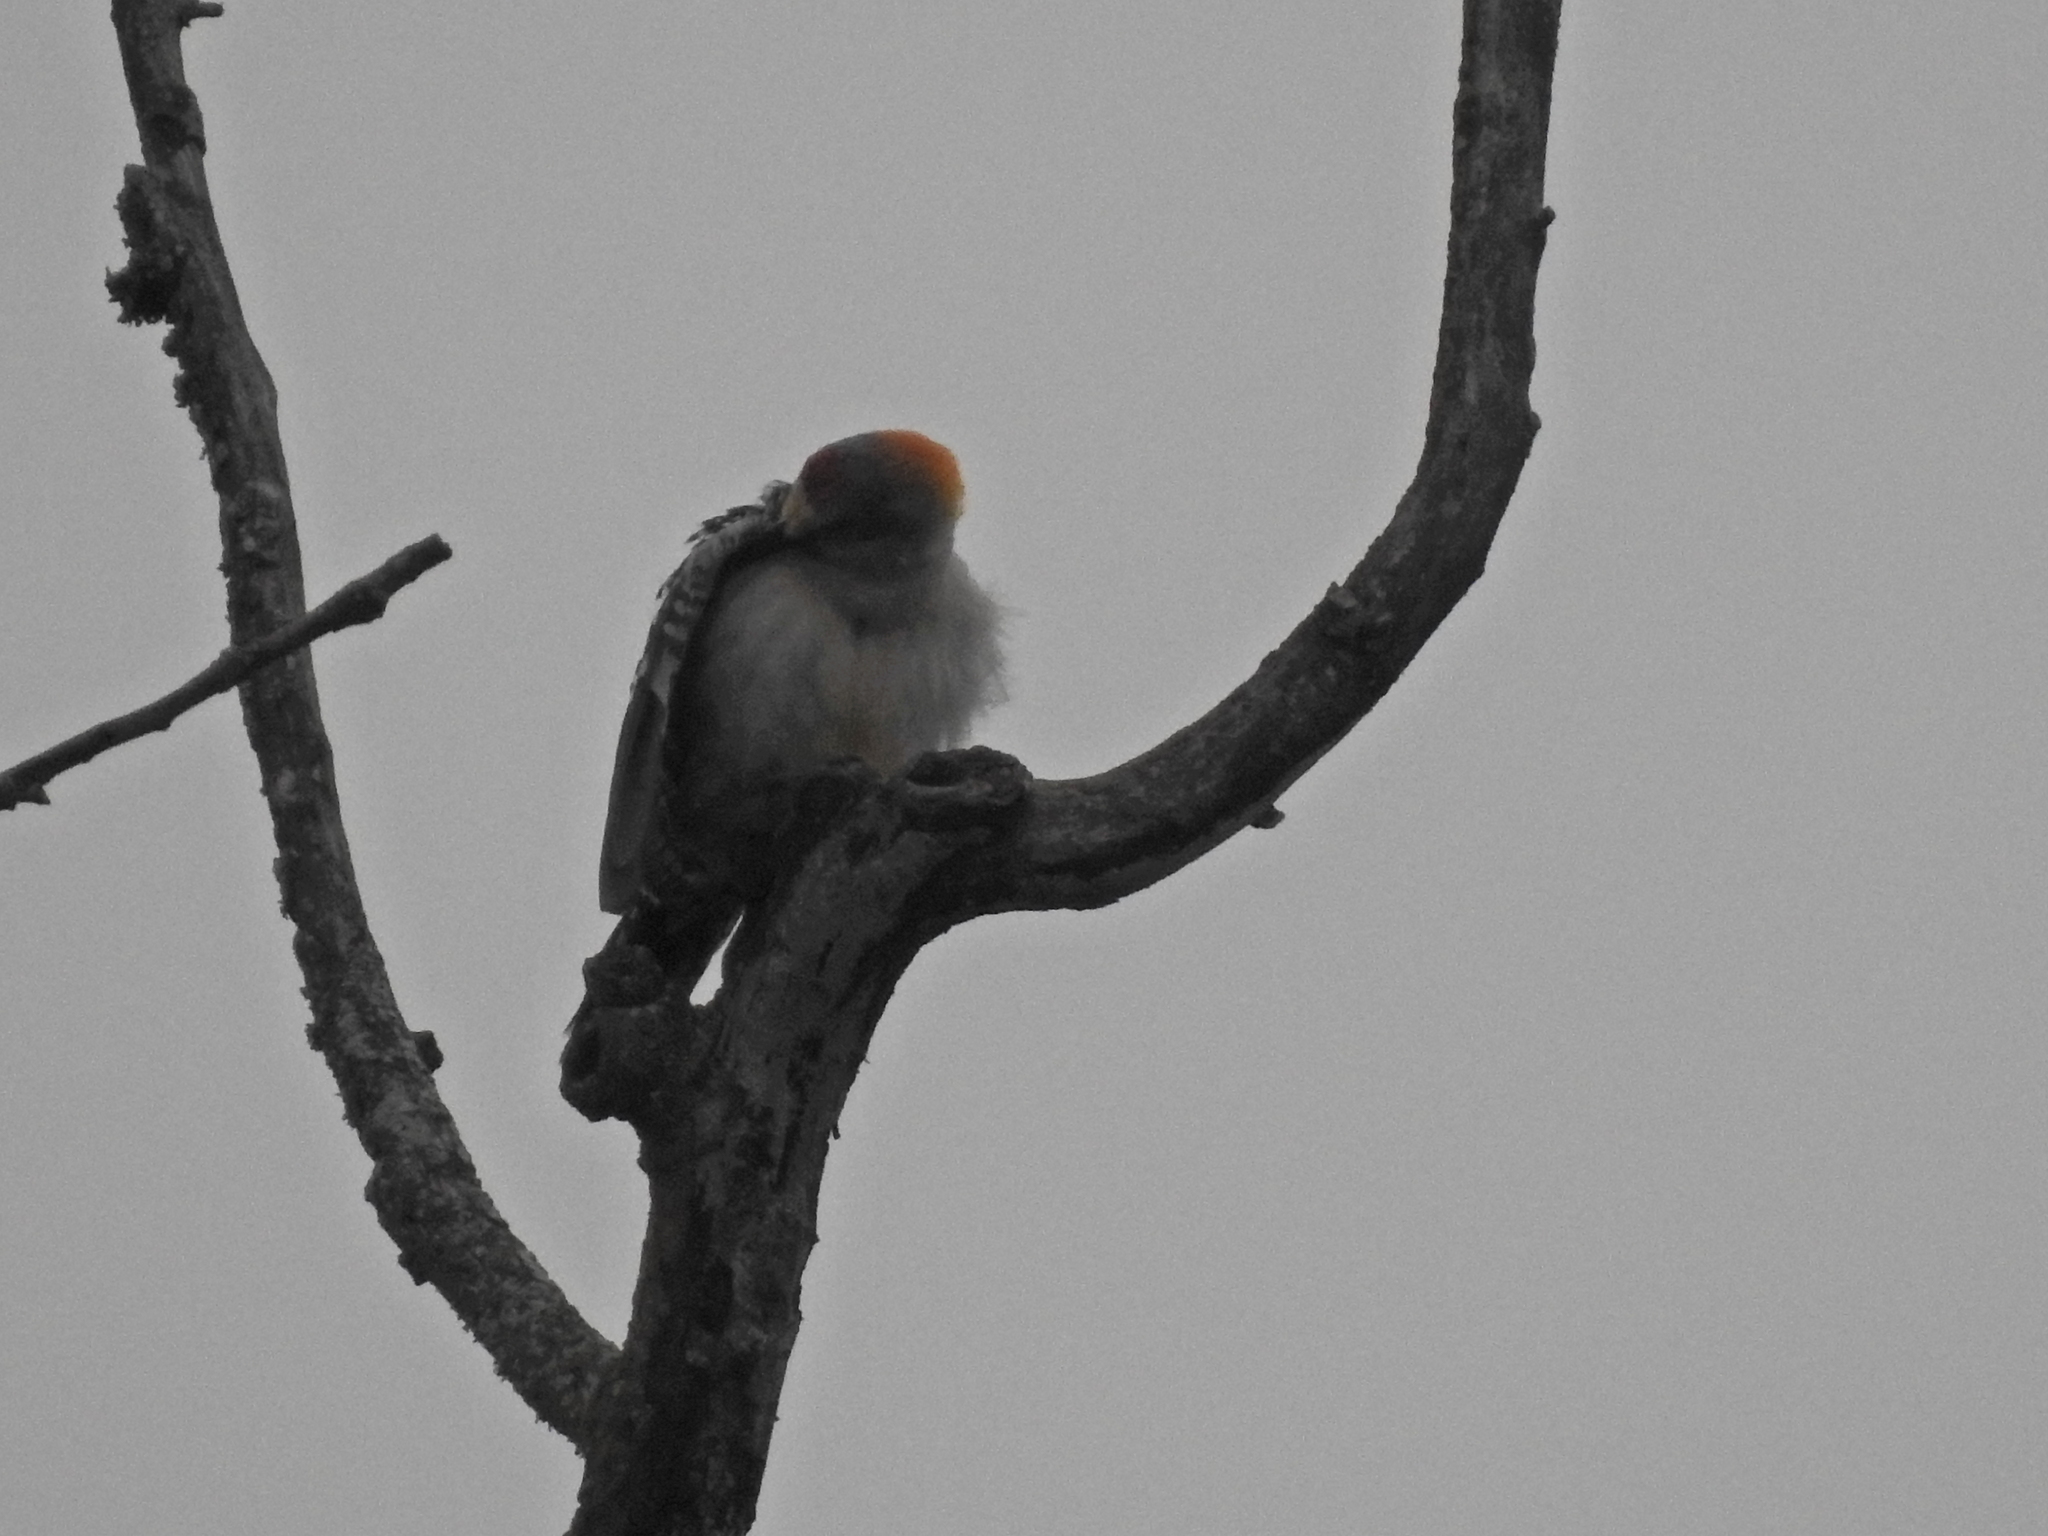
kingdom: Animalia
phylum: Chordata
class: Aves
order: Piciformes
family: Picidae
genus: Melanerpes
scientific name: Melanerpes aurifrons
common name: Golden-fronted woodpecker
